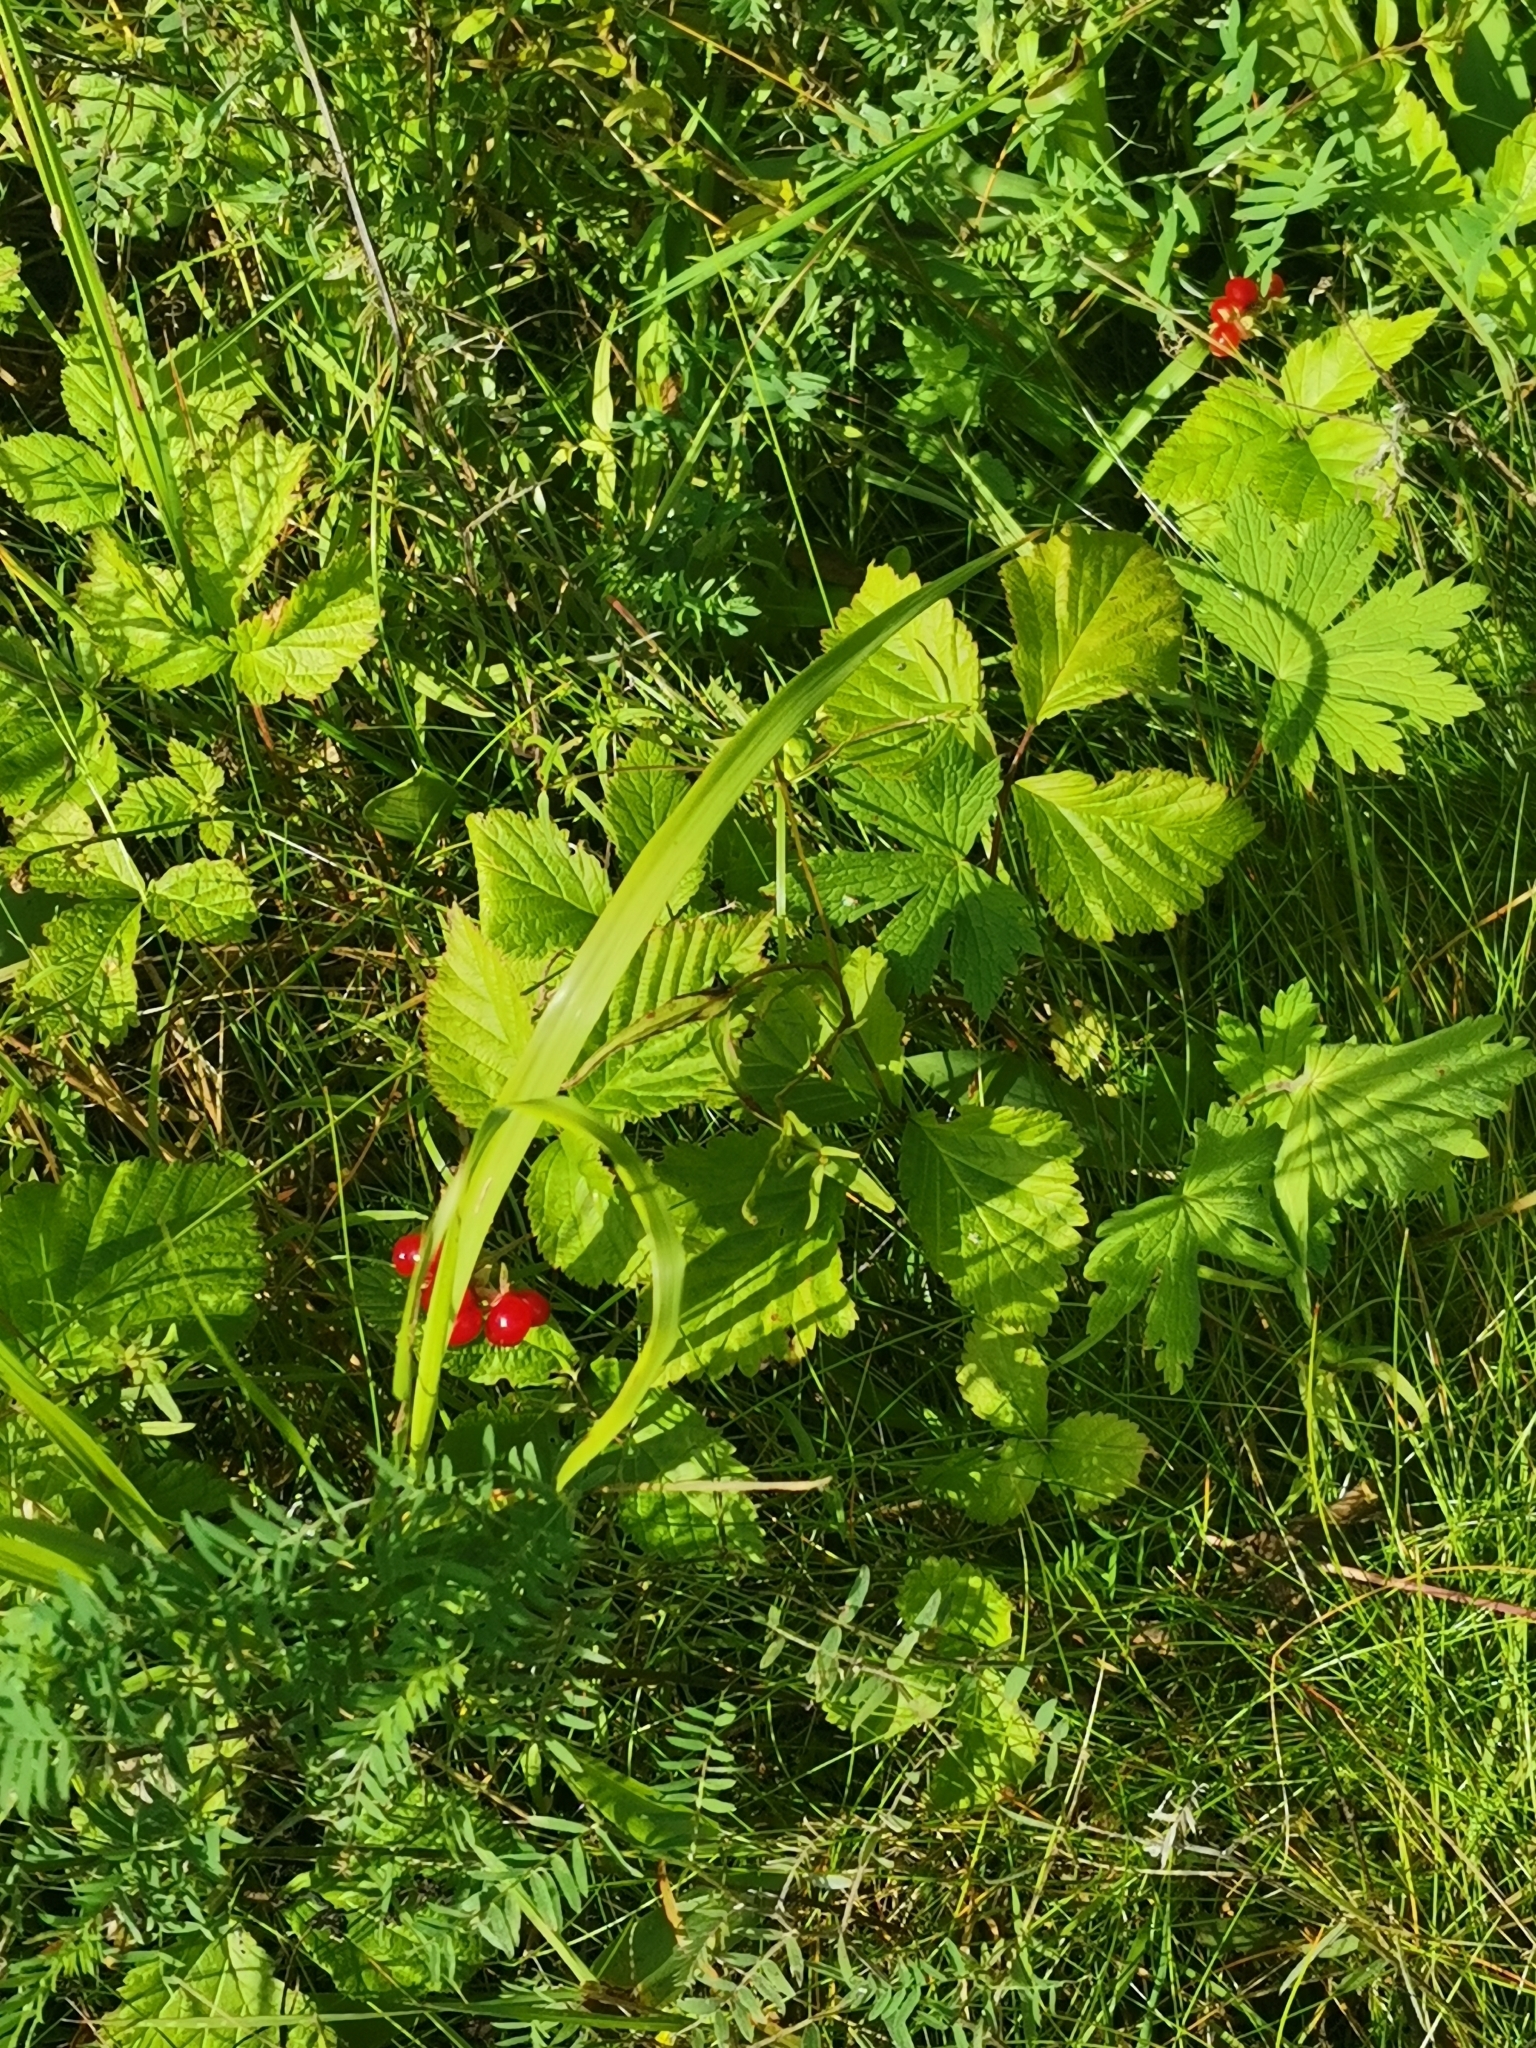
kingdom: Plantae
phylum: Tracheophyta
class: Magnoliopsida
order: Rosales
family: Rosaceae
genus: Rubus
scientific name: Rubus saxatilis
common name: Stone bramble
